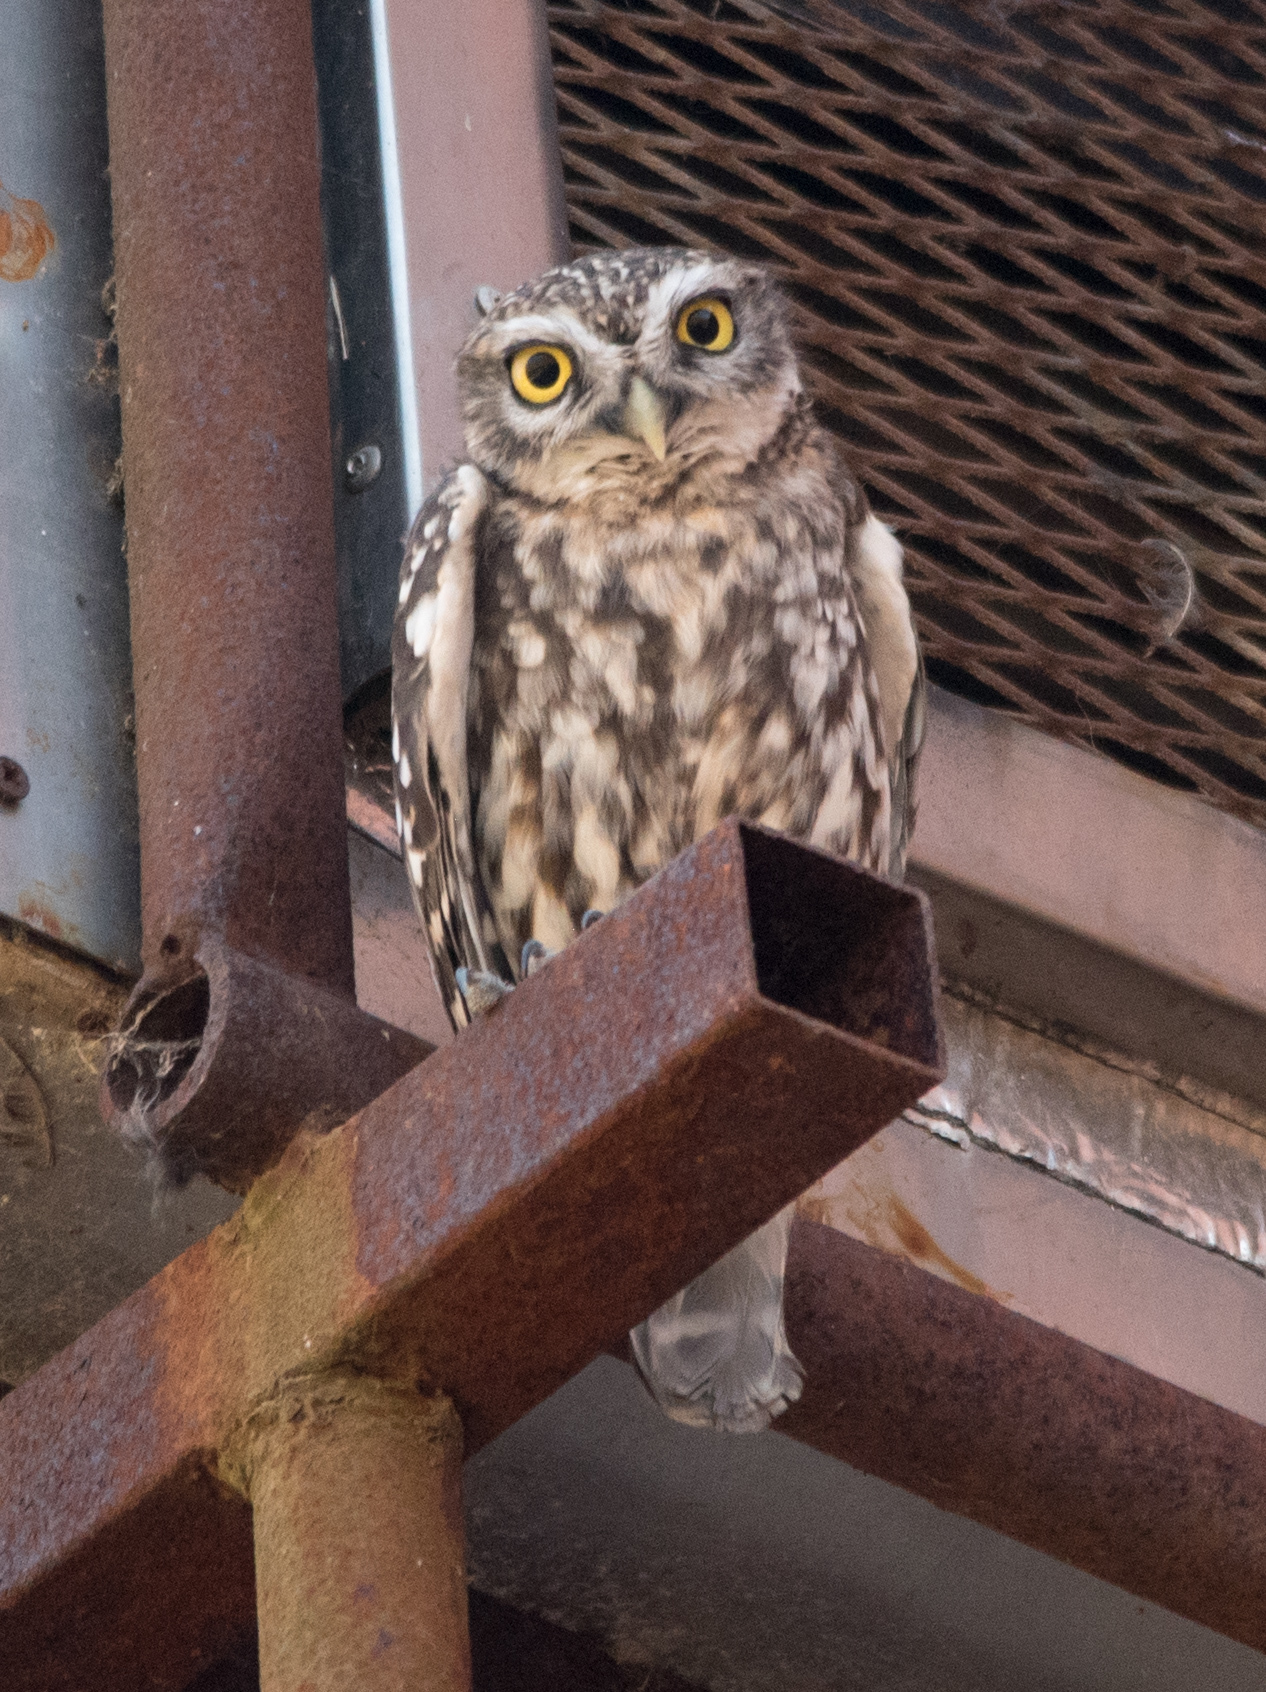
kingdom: Animalia
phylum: Chordata
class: Aves
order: Strigiformes
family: Strigidae
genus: Athene
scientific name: Athene noctua
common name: Little owl
